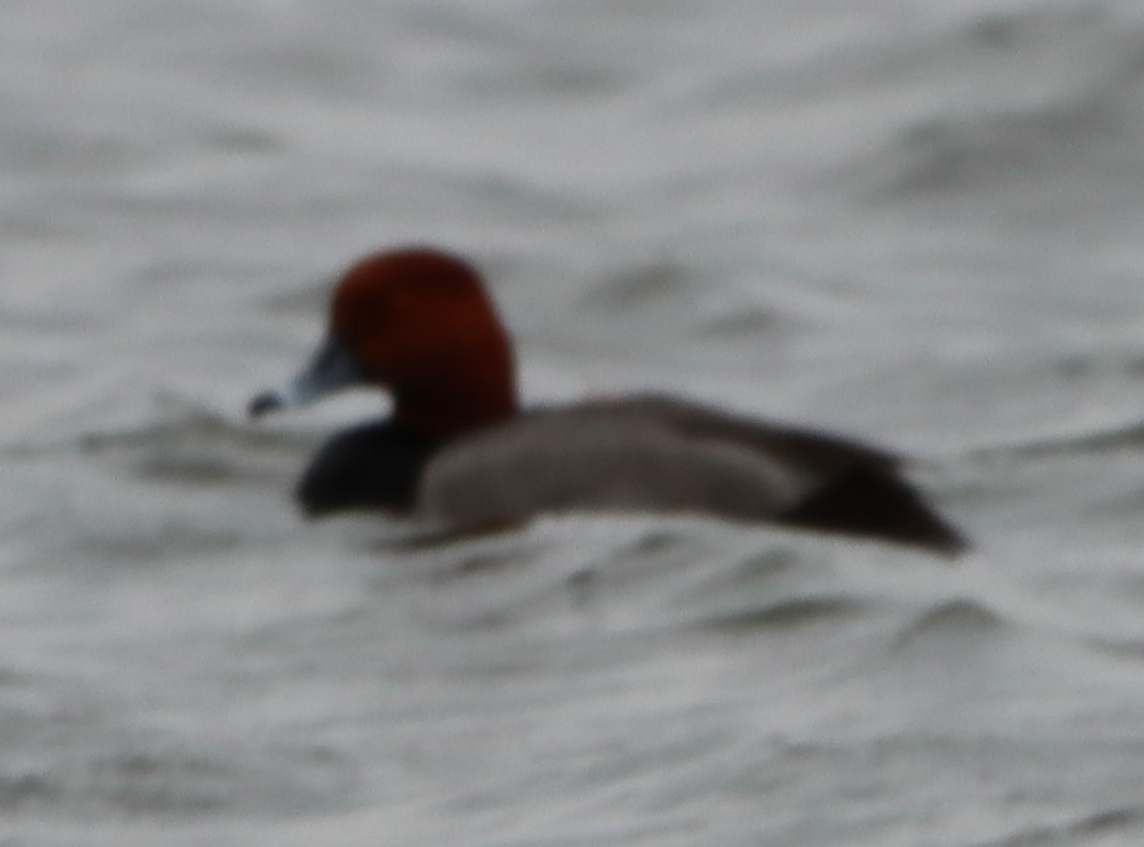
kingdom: Animalia
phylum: Chordata
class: Aves
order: Anseriformes
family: Anatidae
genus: Aythya
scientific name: Aythya americana
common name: Redhead
